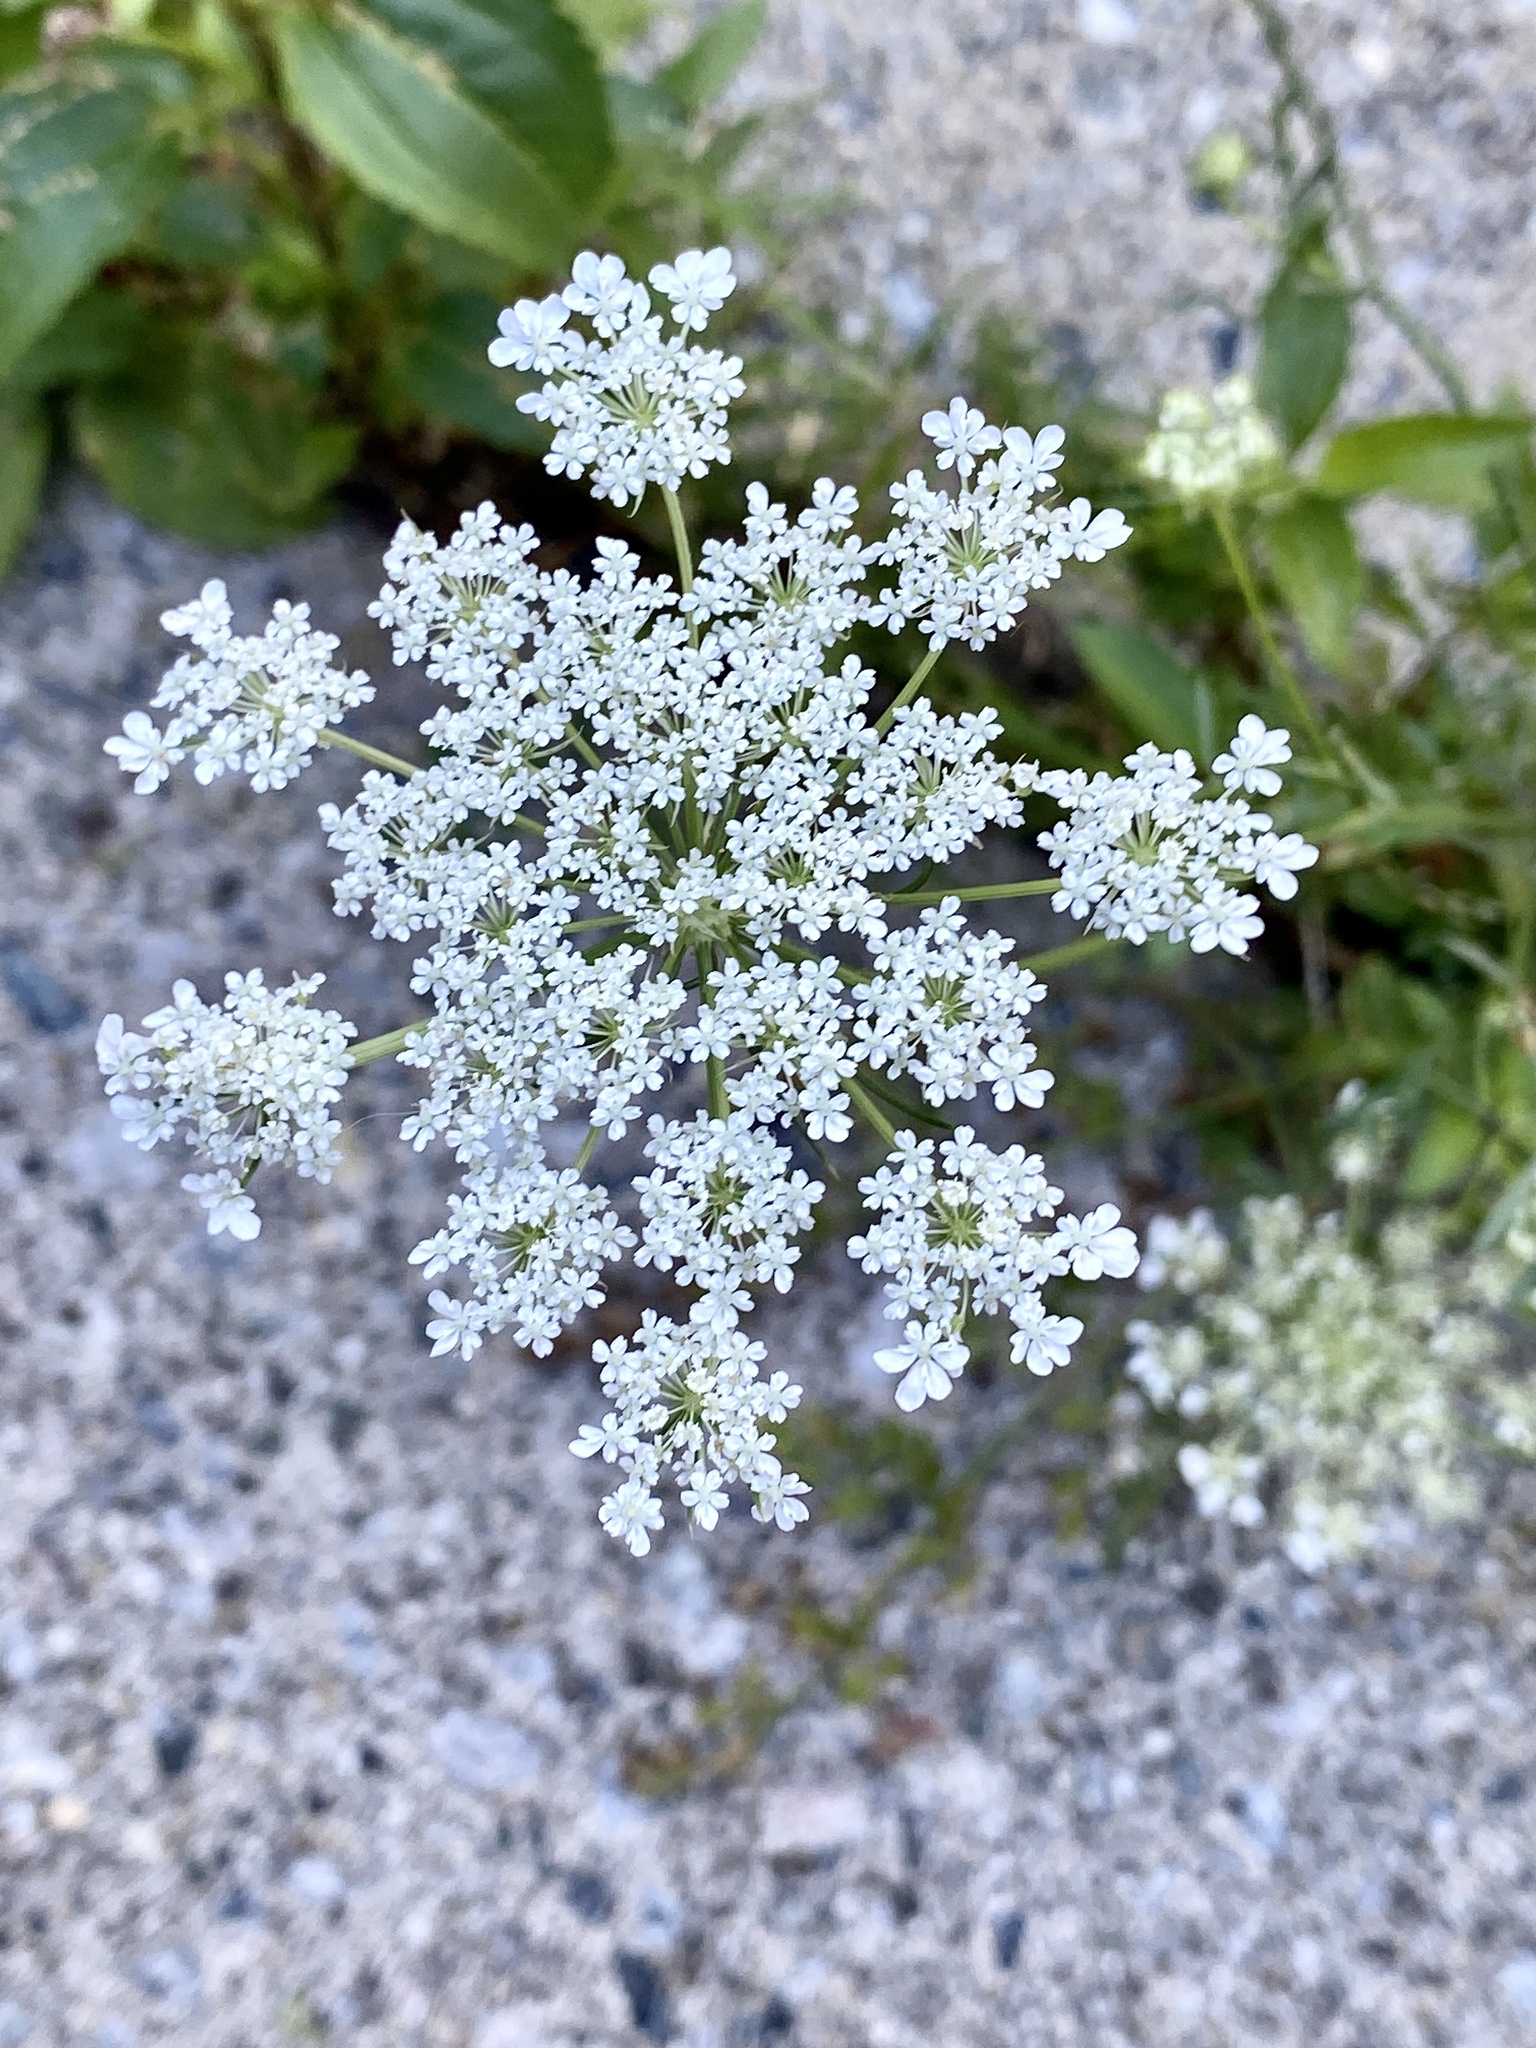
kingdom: Plantae
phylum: Tracheophyta
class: Magnoliopsida
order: Apiales
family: Apiaceae
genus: Daucus
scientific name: Daucus carota
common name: Wild carrot
